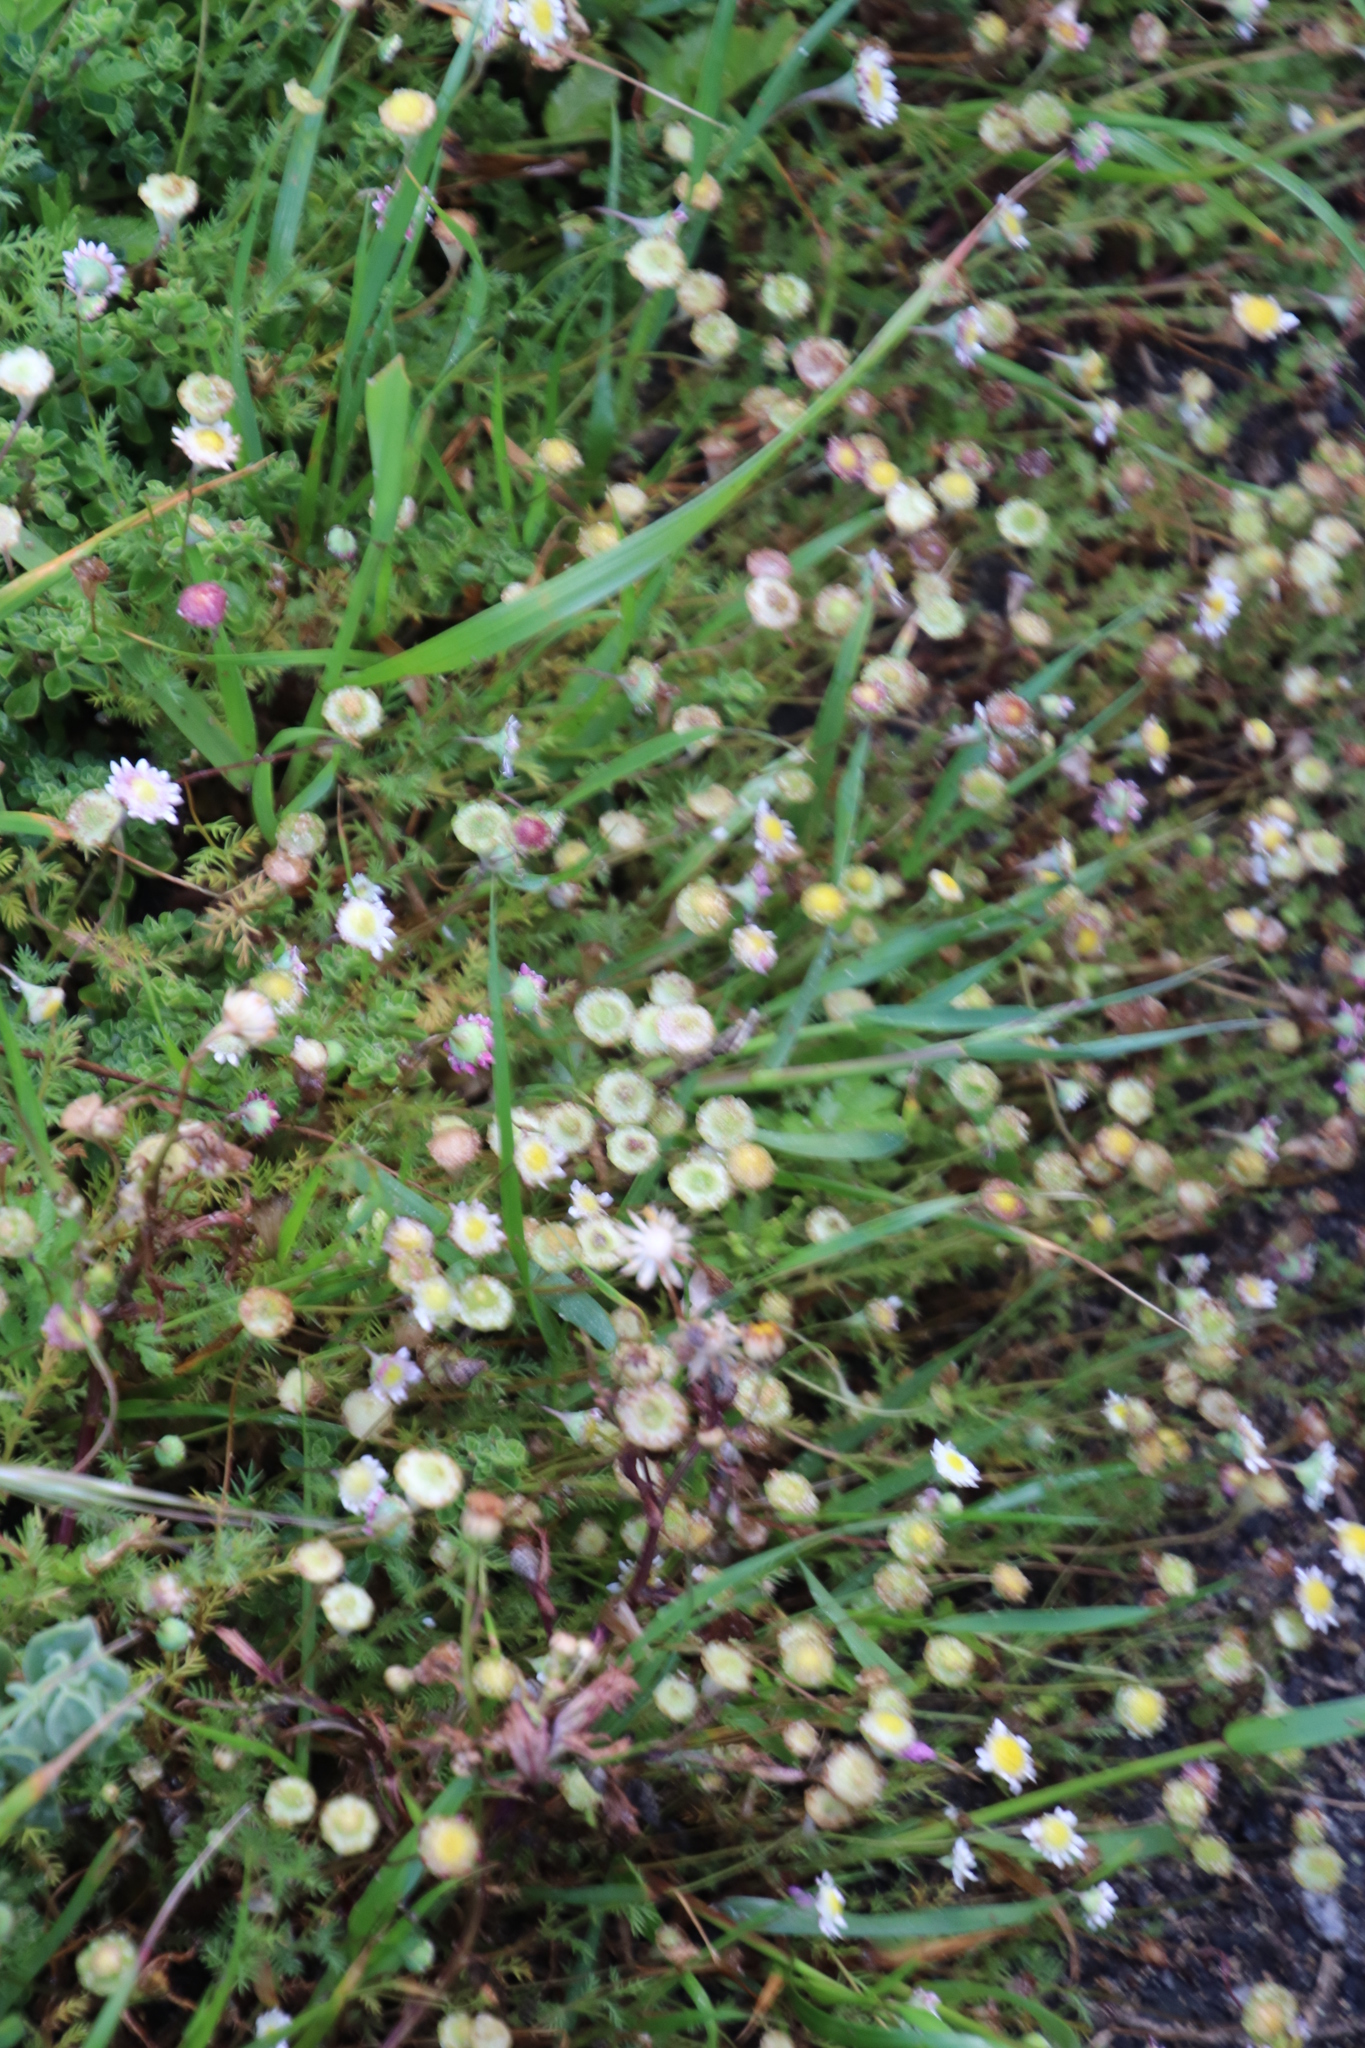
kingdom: Plantae
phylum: Tracheophyta
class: Magnoliopsida
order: Asterales
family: Asteraceae
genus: Cotula
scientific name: Cotula turbinata
